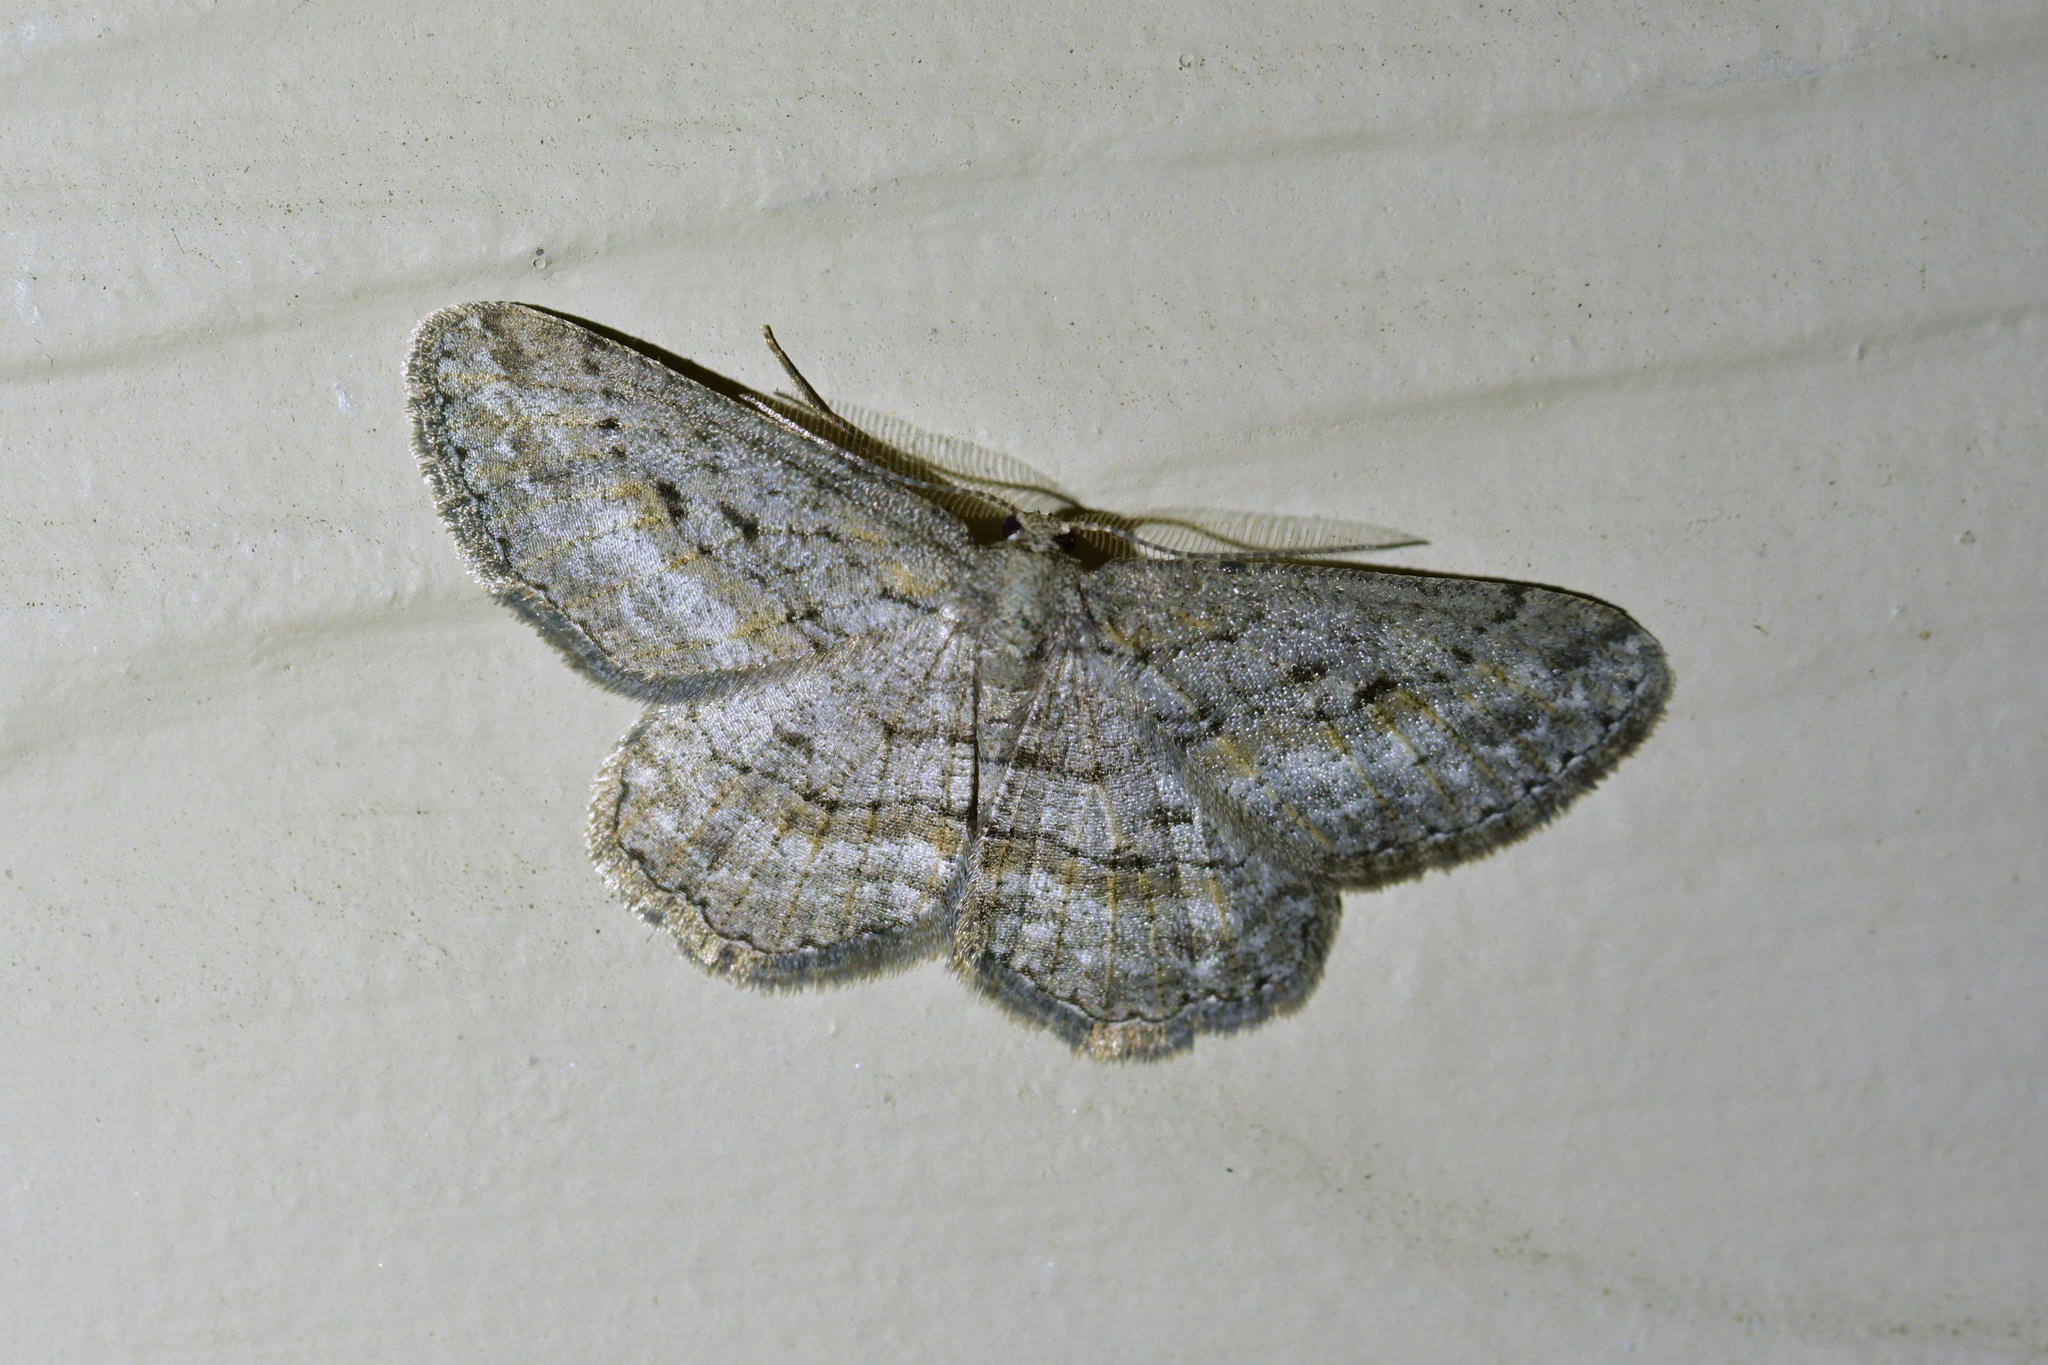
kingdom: Animalia
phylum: Arthropoda
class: Insecta
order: Lepidoptera
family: Geometridae
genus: Zermizinga
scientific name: Zermizinga indocilisaria
